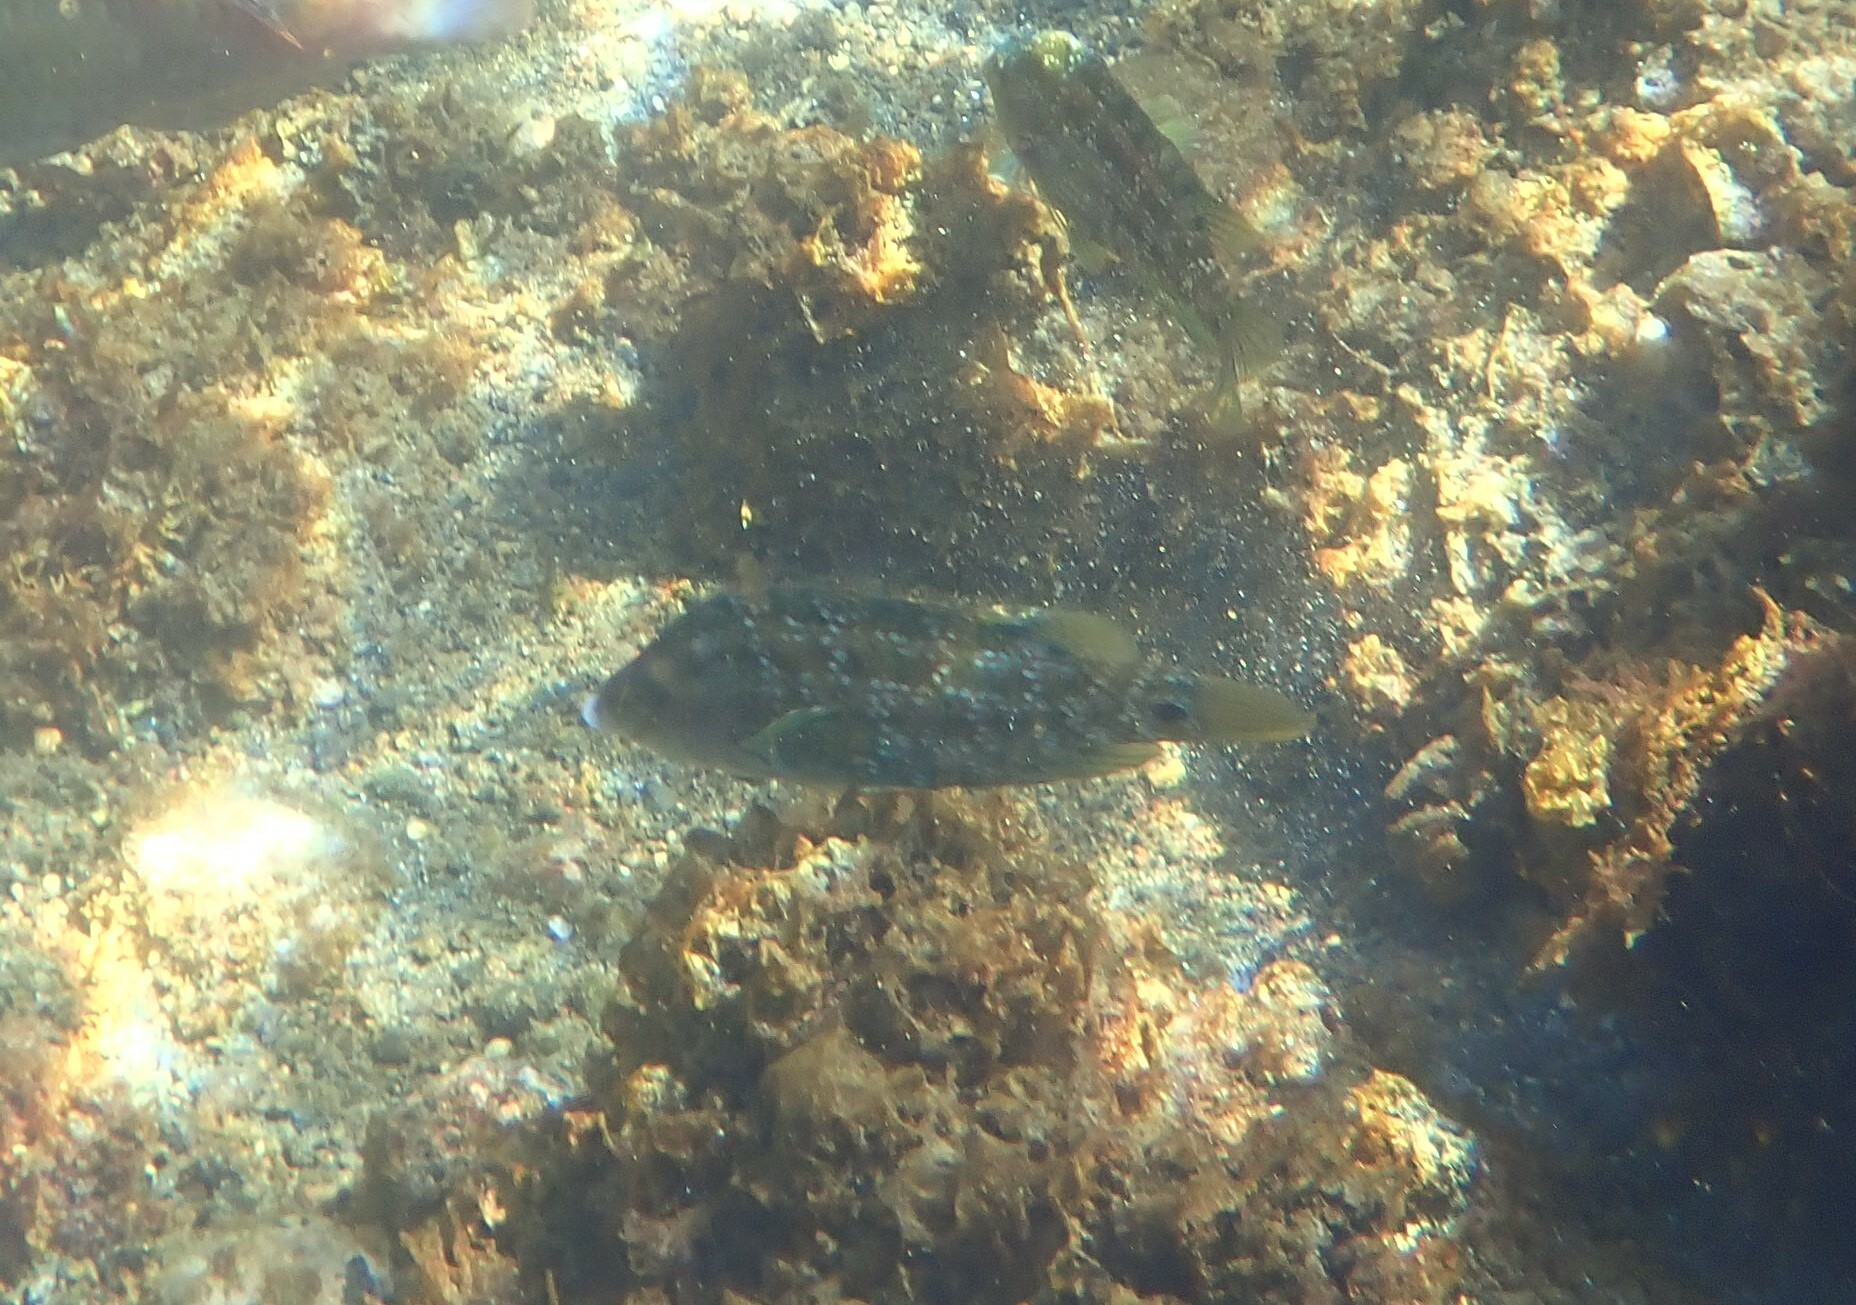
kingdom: Animalia
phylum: Chordata
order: Perciformes
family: Labridae
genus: Symphodus
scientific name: Symphodus caeruleus
